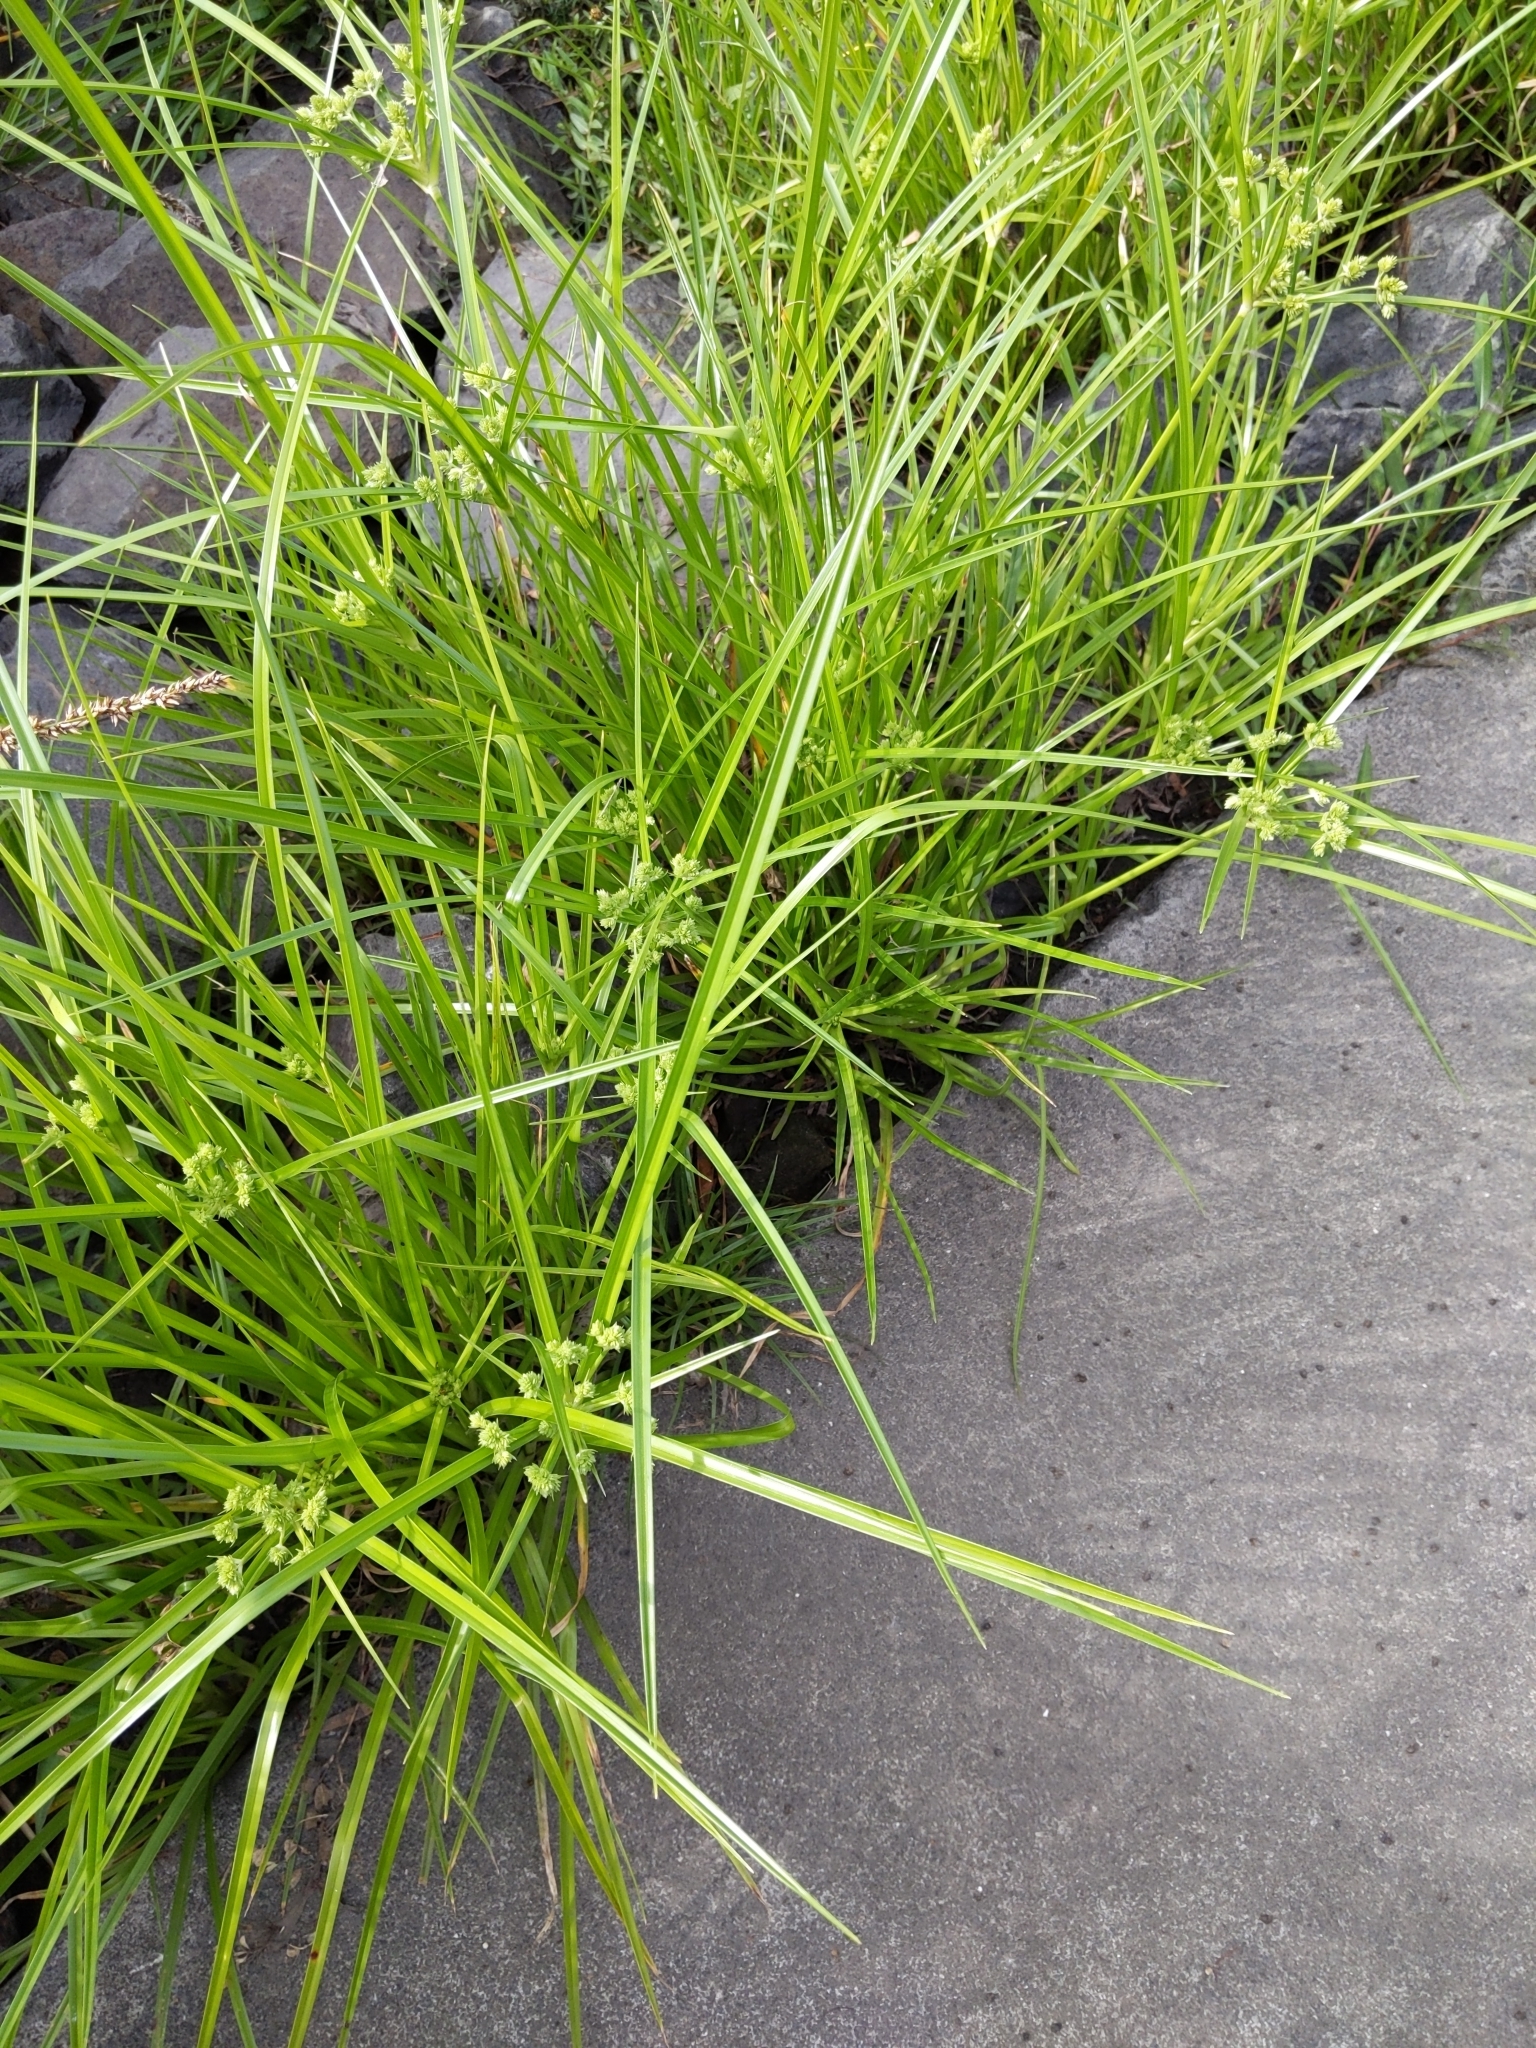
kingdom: Plantae
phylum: Tracheophyta
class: Liliopsida
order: Poales
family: Cyperaceae
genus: Cyperus
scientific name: Cyperus eragrostis
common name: Tall flatsedge
